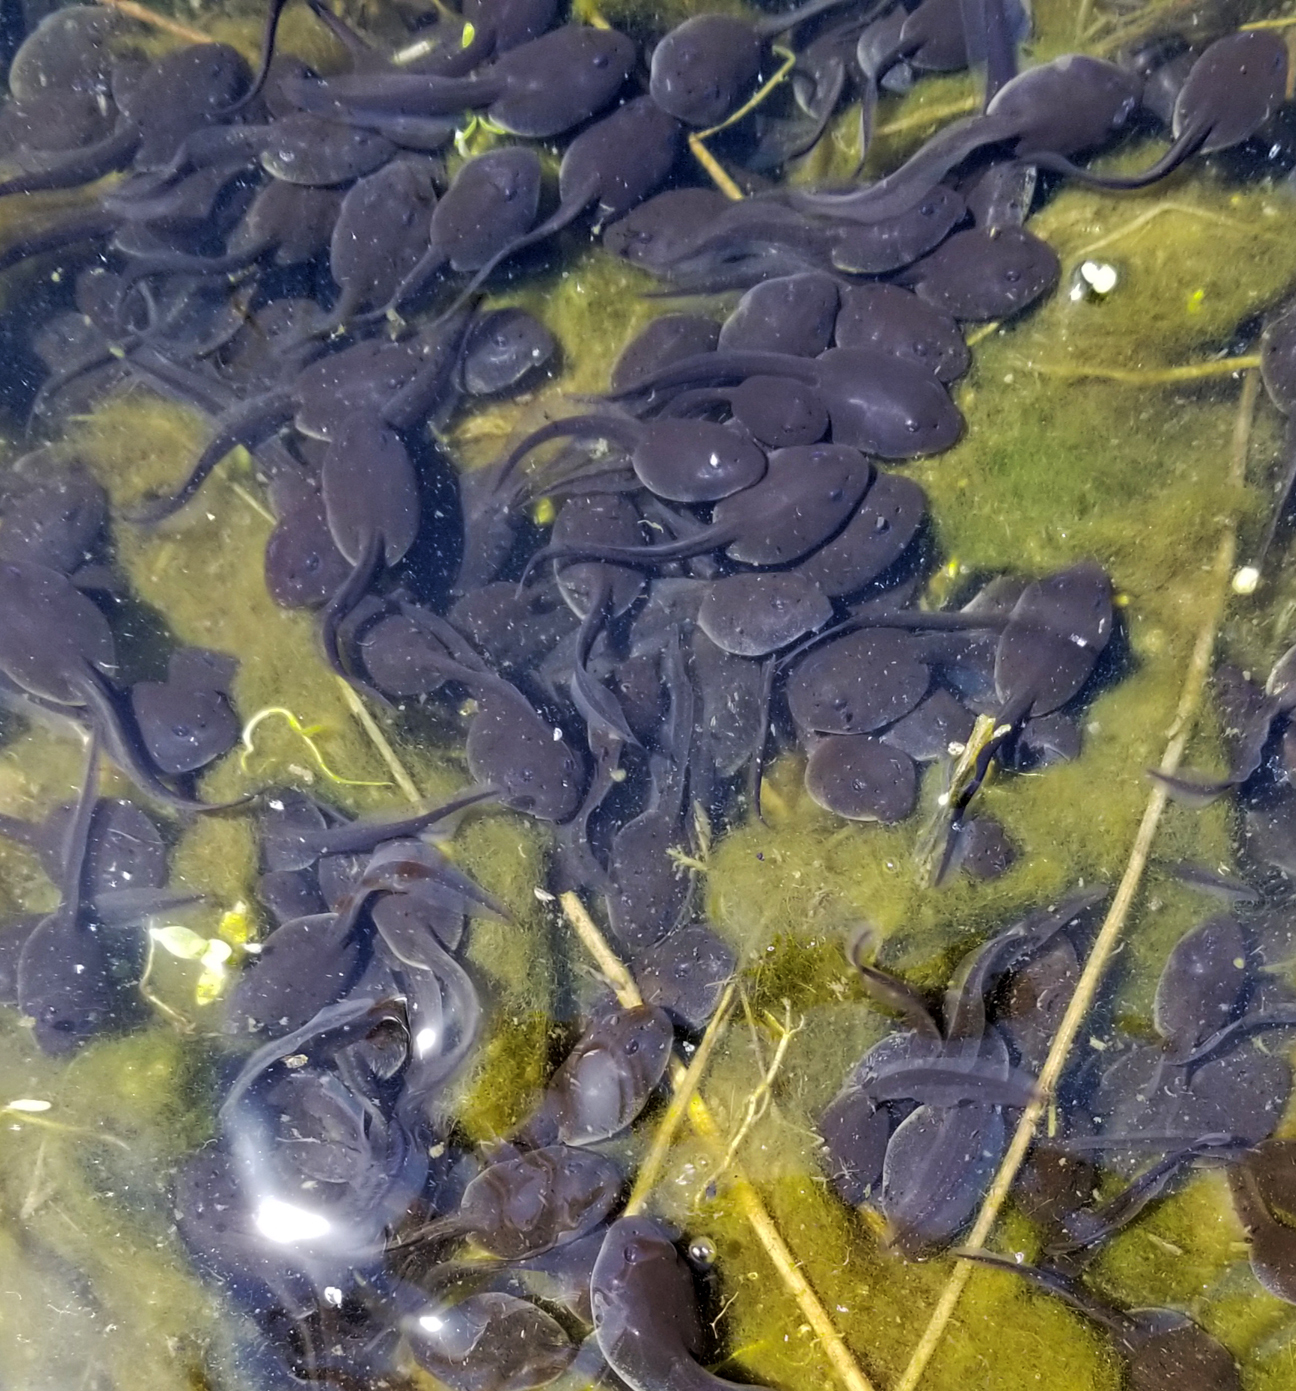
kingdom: Animalia
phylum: Chordata
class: Amphibia
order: Anura
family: Bufonidae
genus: Anaxyrus
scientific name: Anaxyrus boreas
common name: Western toad
